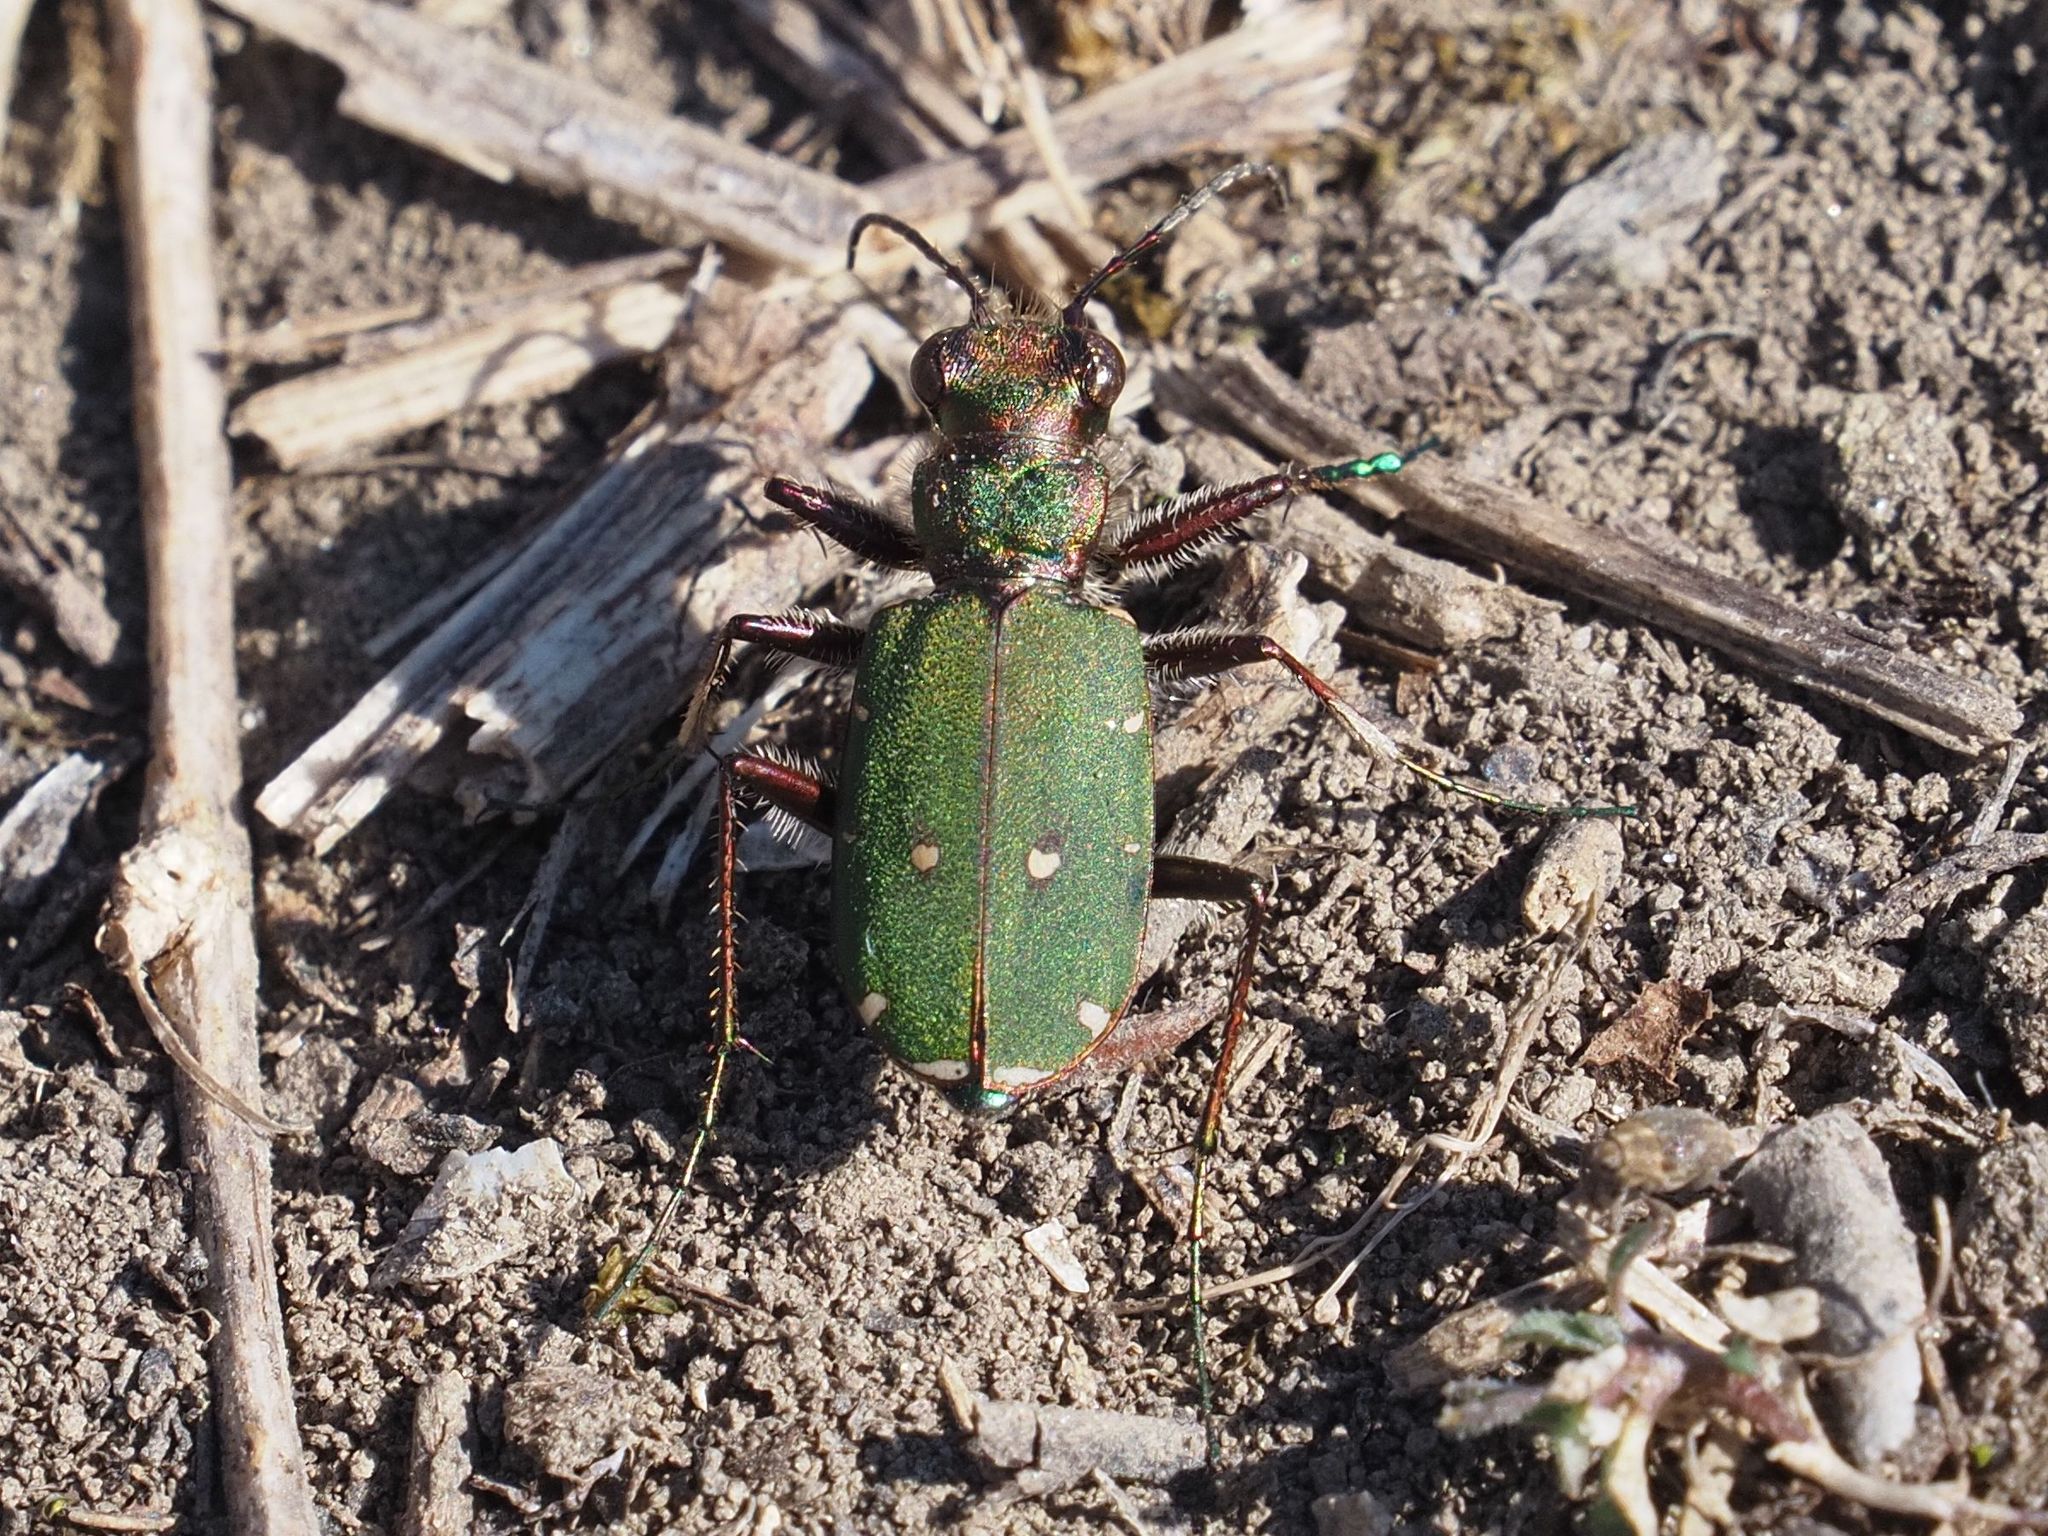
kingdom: Animalia
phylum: Arthropoda
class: Insecta
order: Coleoptera
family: Carabidae
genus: Cicindela
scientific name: Cicindela campestris
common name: Common tiger beetle
